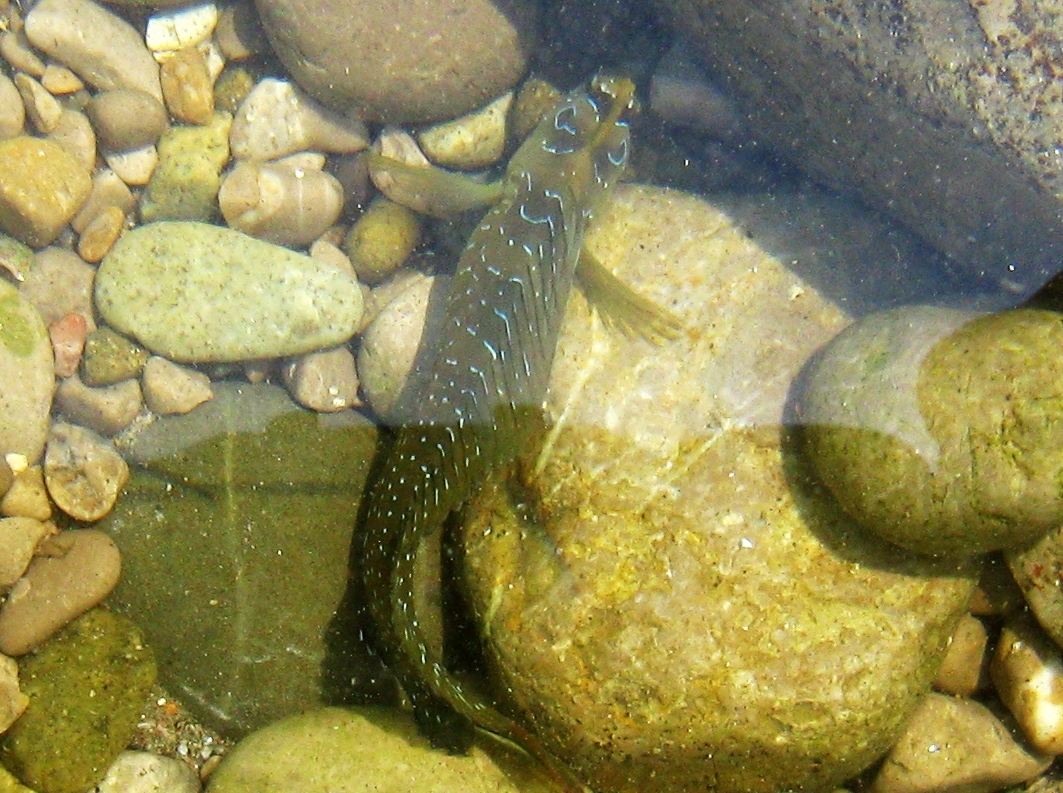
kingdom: Animalia
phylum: Chordata
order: Perciformes
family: Blenniidae
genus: Salaria
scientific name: Salaria pavo
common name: Peacock blenny
